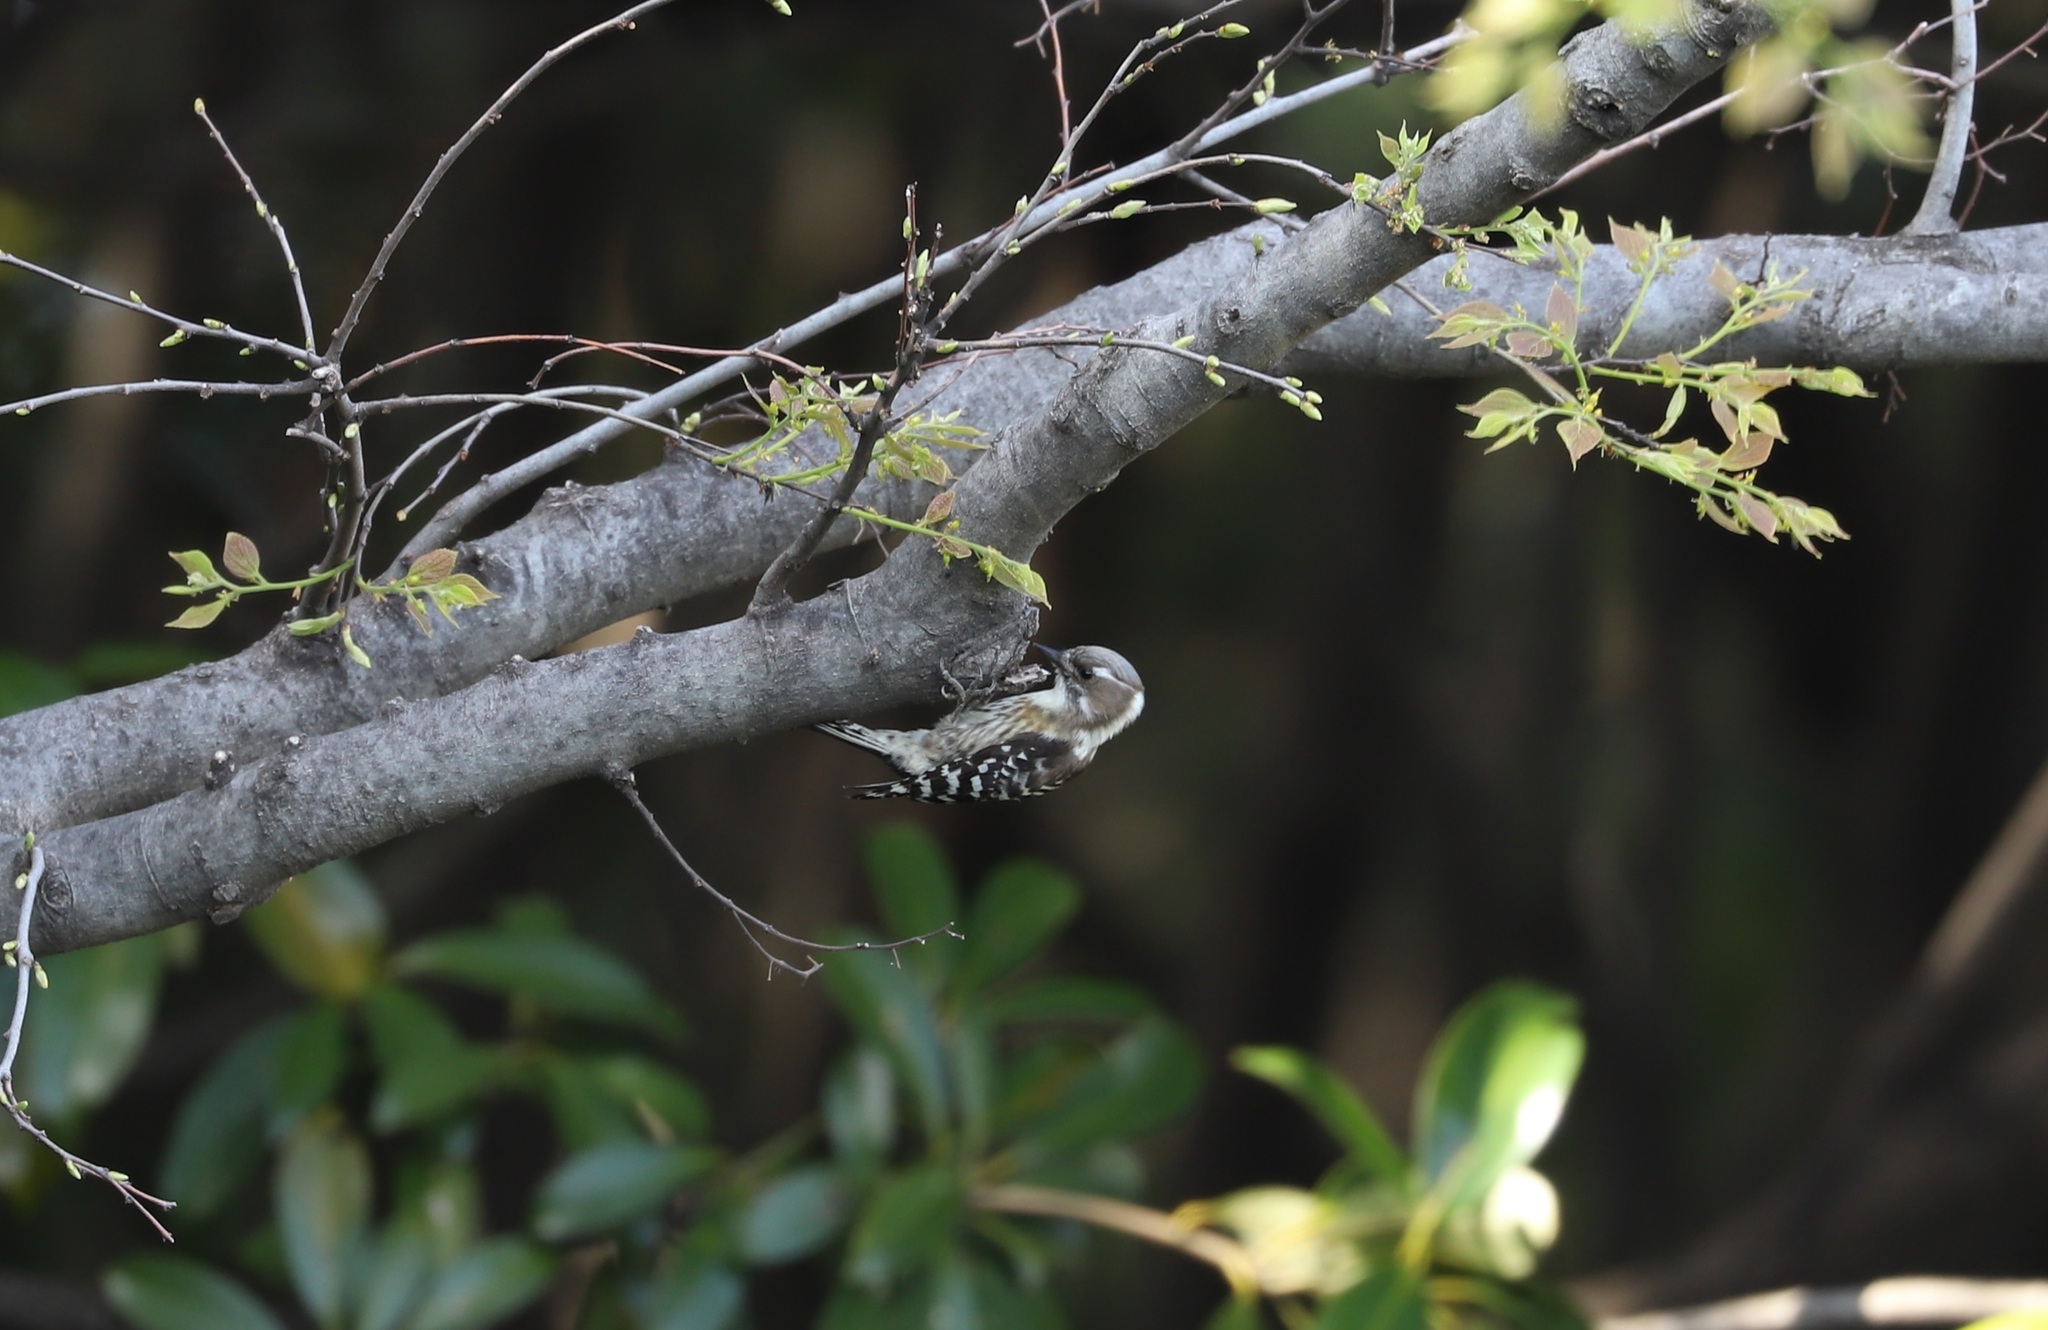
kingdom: Animalia
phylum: Chordata
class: Aves
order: Piciformes
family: Picidae
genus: Yungipicus
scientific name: Yungipicus kizuki
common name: Japanese pygmy woodpecker
